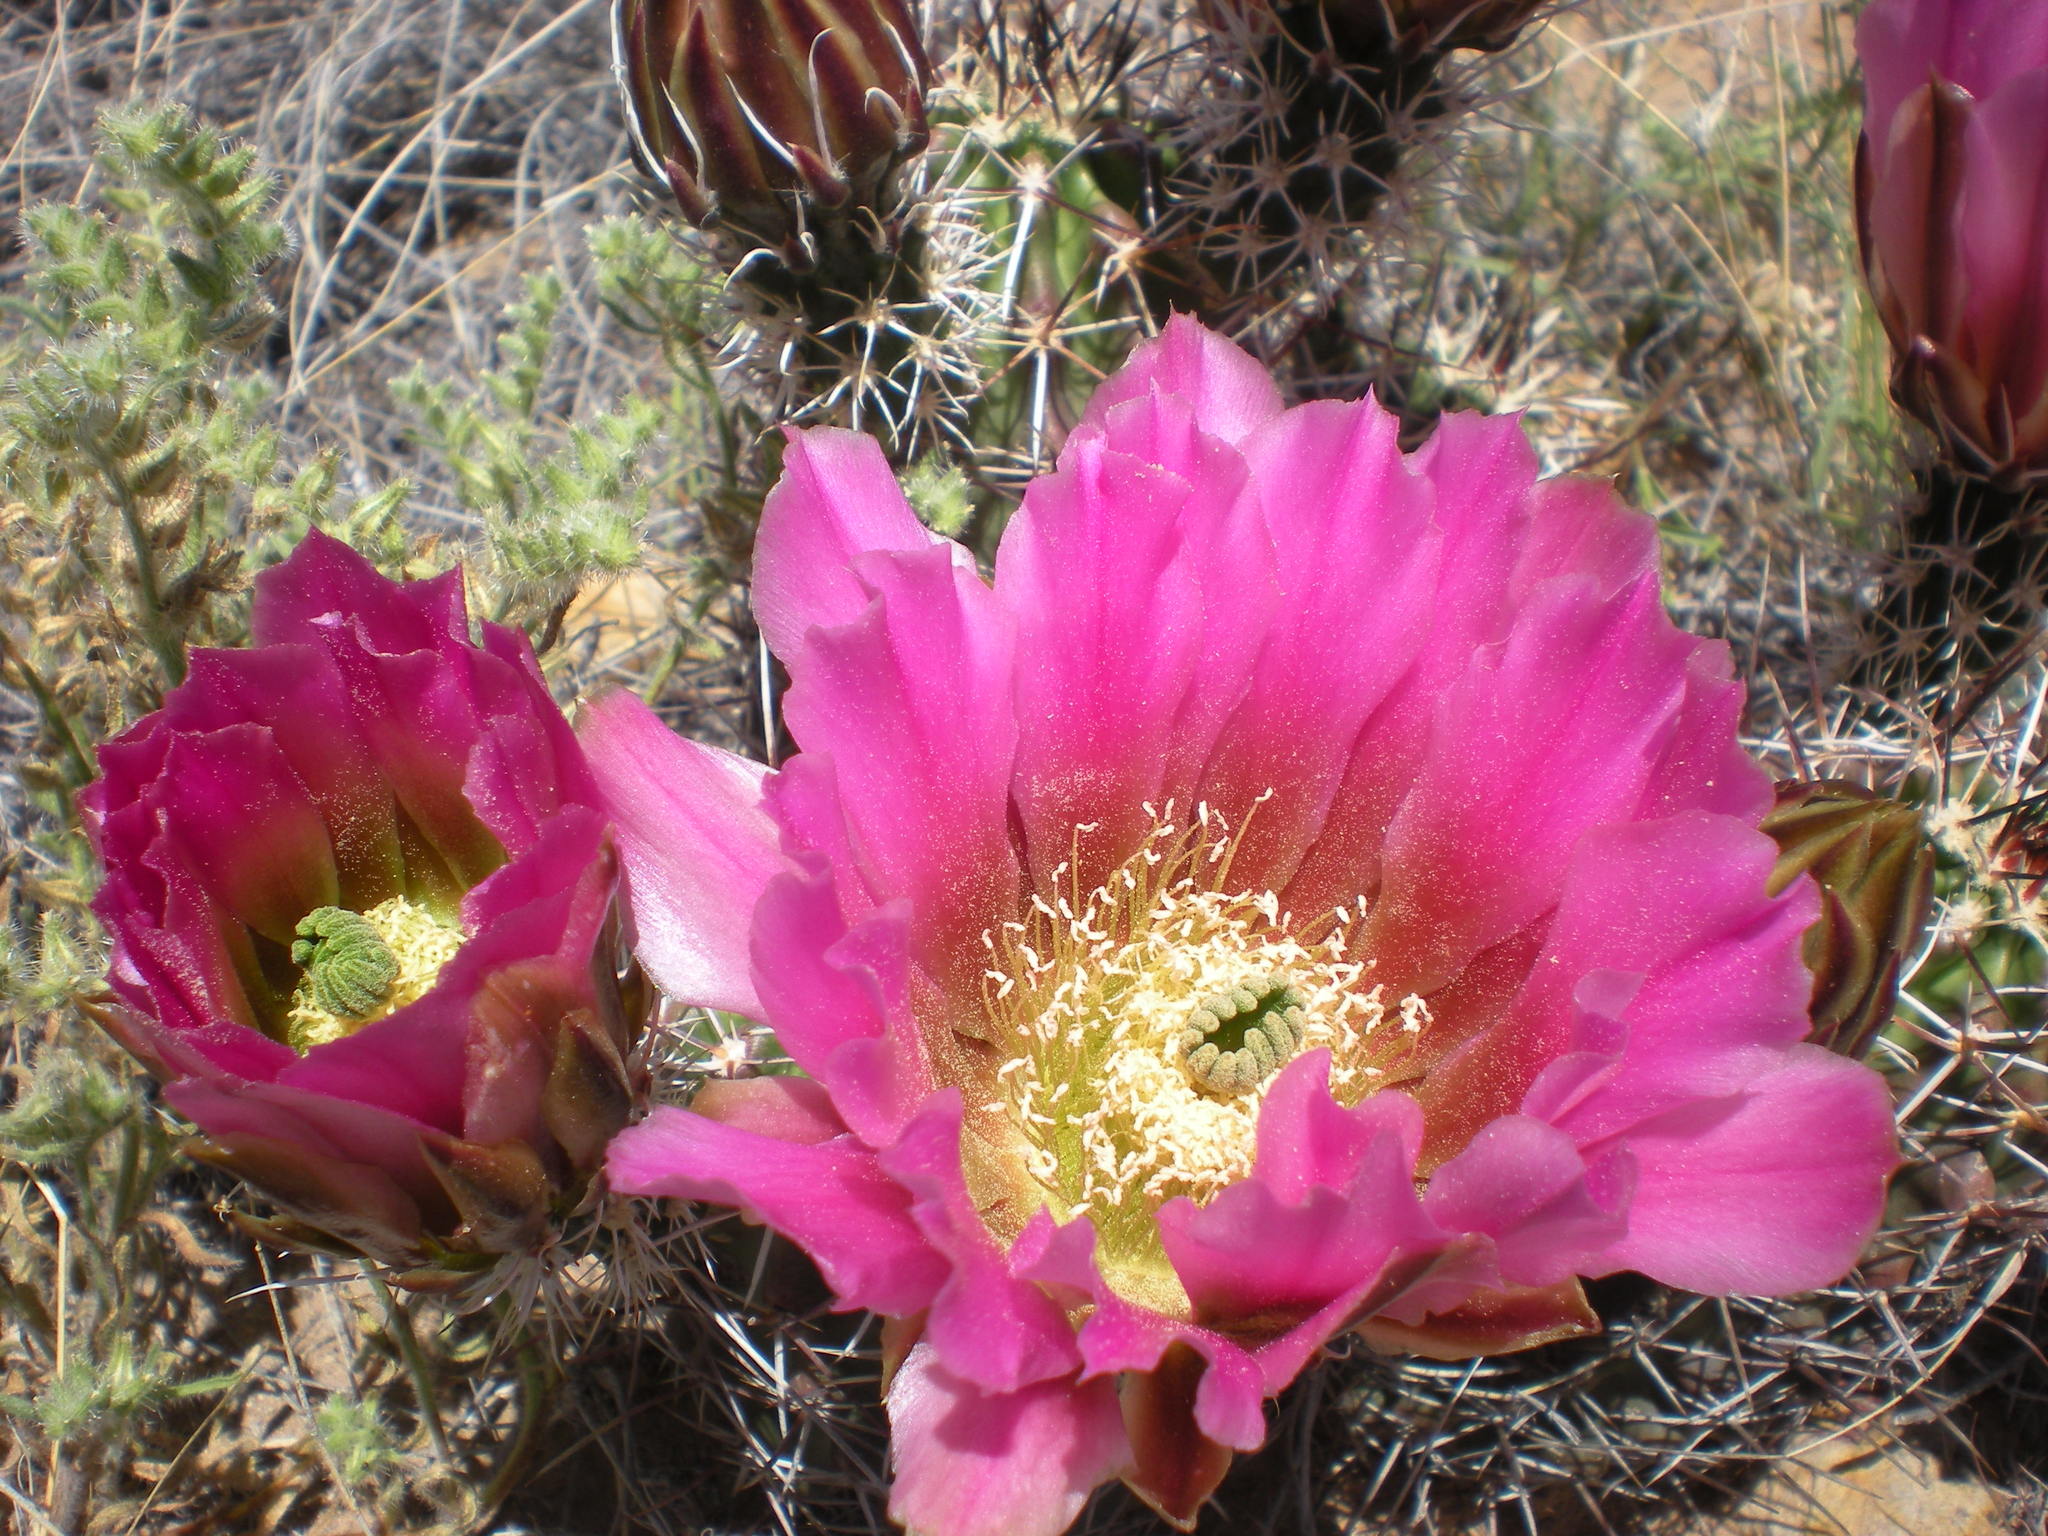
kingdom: Plantae
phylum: Tracheophyta
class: Magnoliopsida
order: Caryophyllales
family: Cactaceae
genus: Echinocereus
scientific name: Echinocereus fendleri
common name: Fendler's hedgehog cactus
